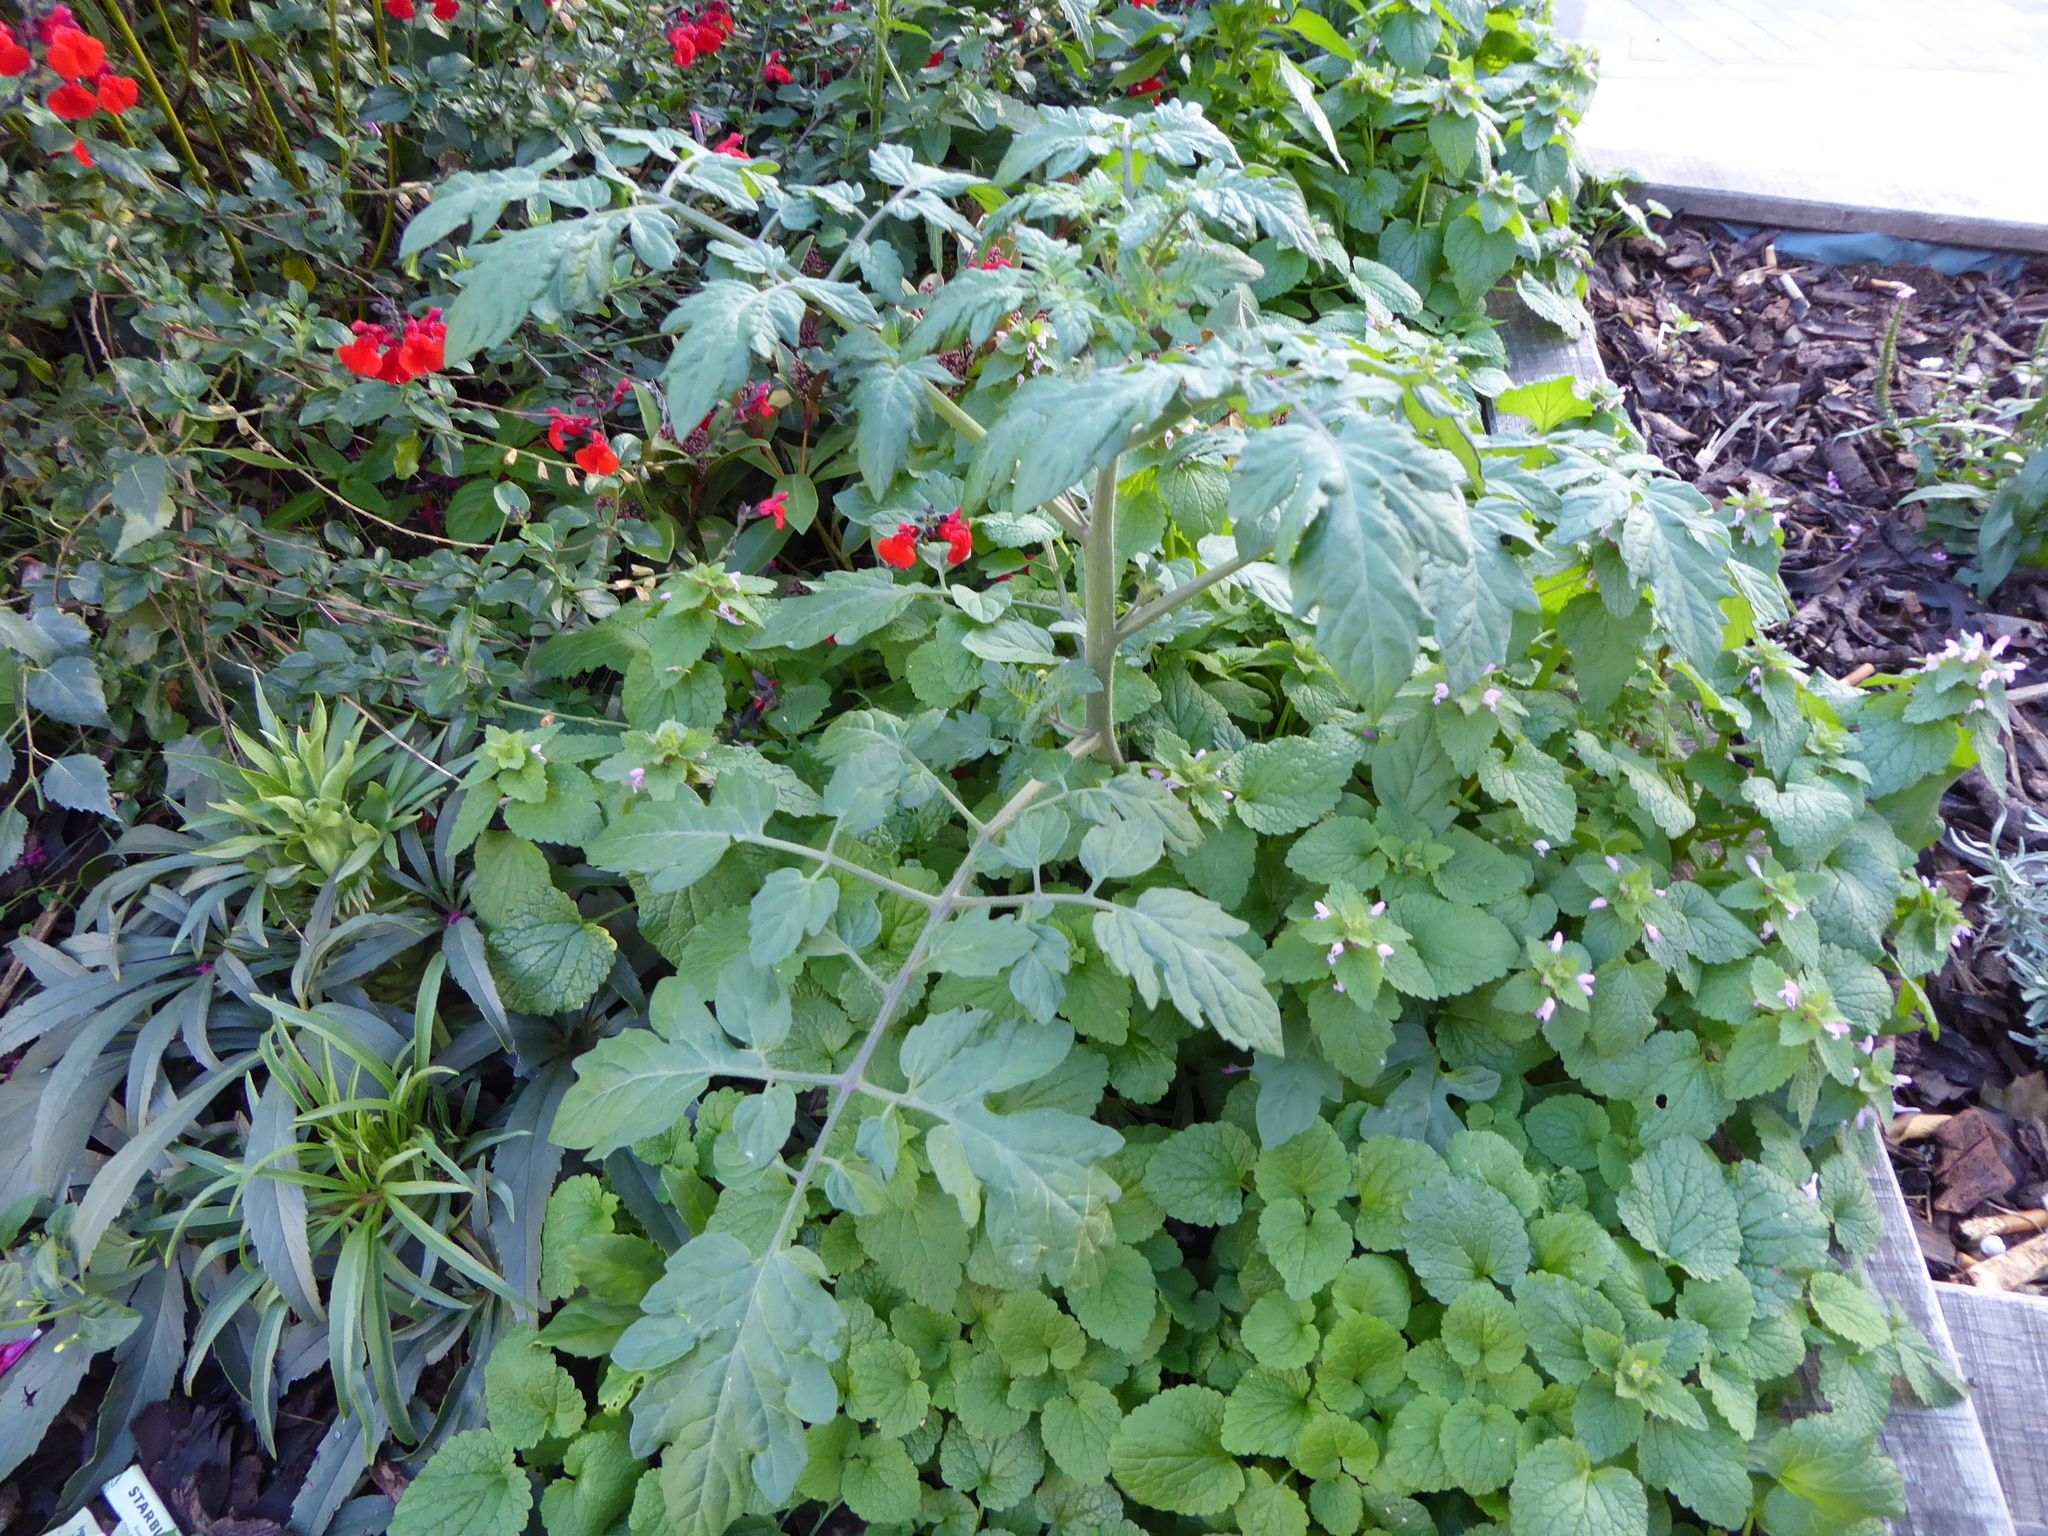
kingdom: Plantae
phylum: Tracheophyta
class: Magnoliopsida
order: Solanales
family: Solanaceae
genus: Solanum
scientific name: Solanum lycopersicum
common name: Garden tomato
